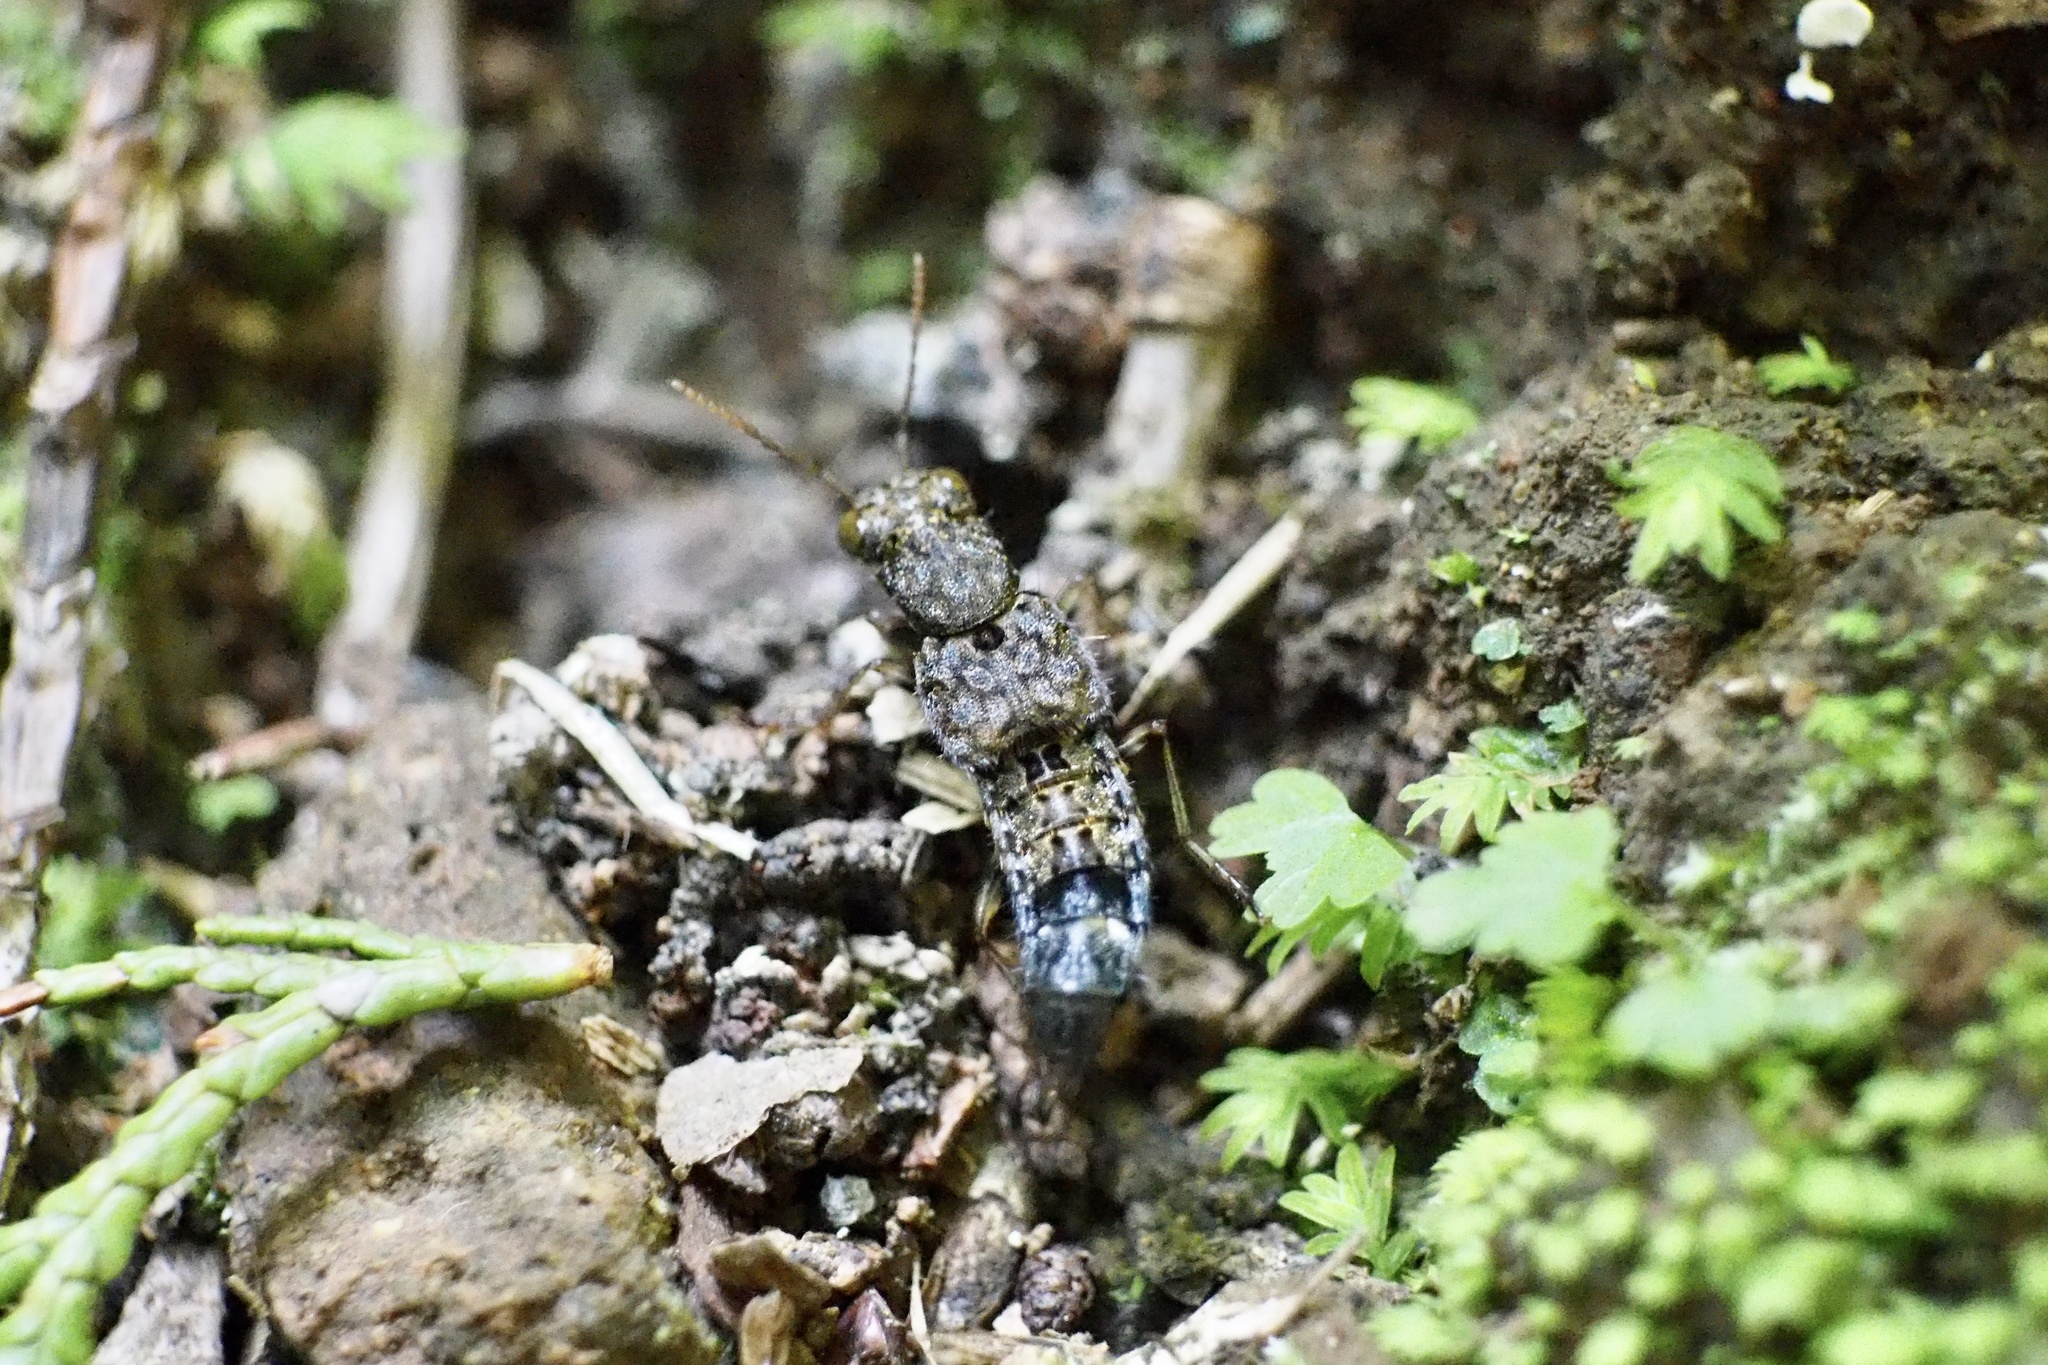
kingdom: Animalia
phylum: Arthropoda
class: Insecta
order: Coleoptera
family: Staphylinidae
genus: Ontholestes
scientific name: Ontholestes gracilis
